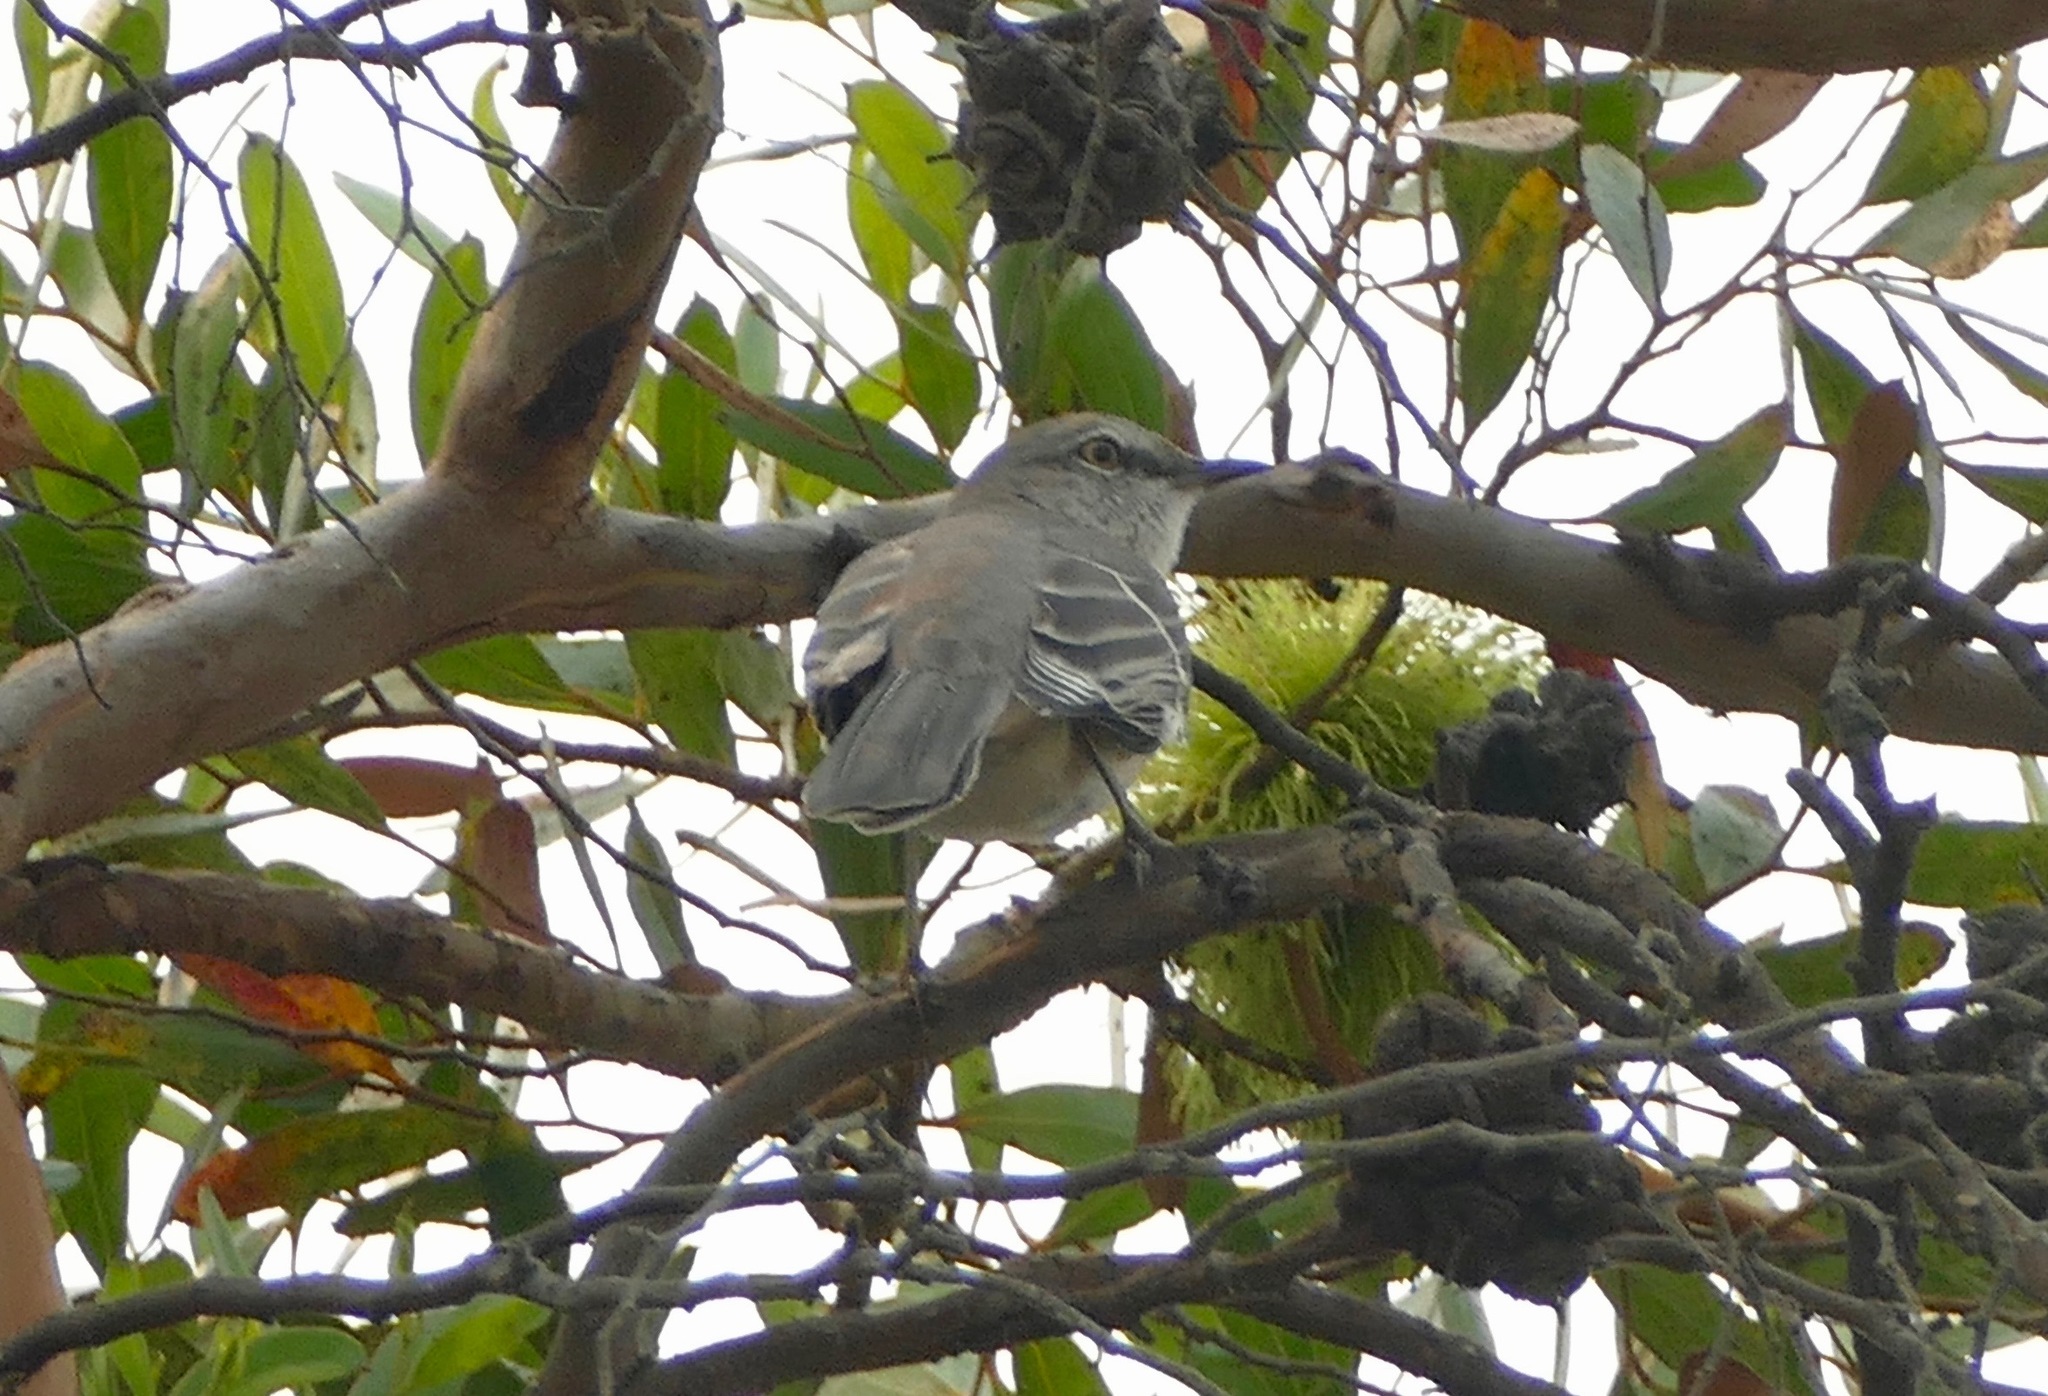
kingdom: Animalia
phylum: Chordata
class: Aves
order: Passeriformes
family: Mimidae
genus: Mimus
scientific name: Mimus polyglottos
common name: Northern mockingbird
